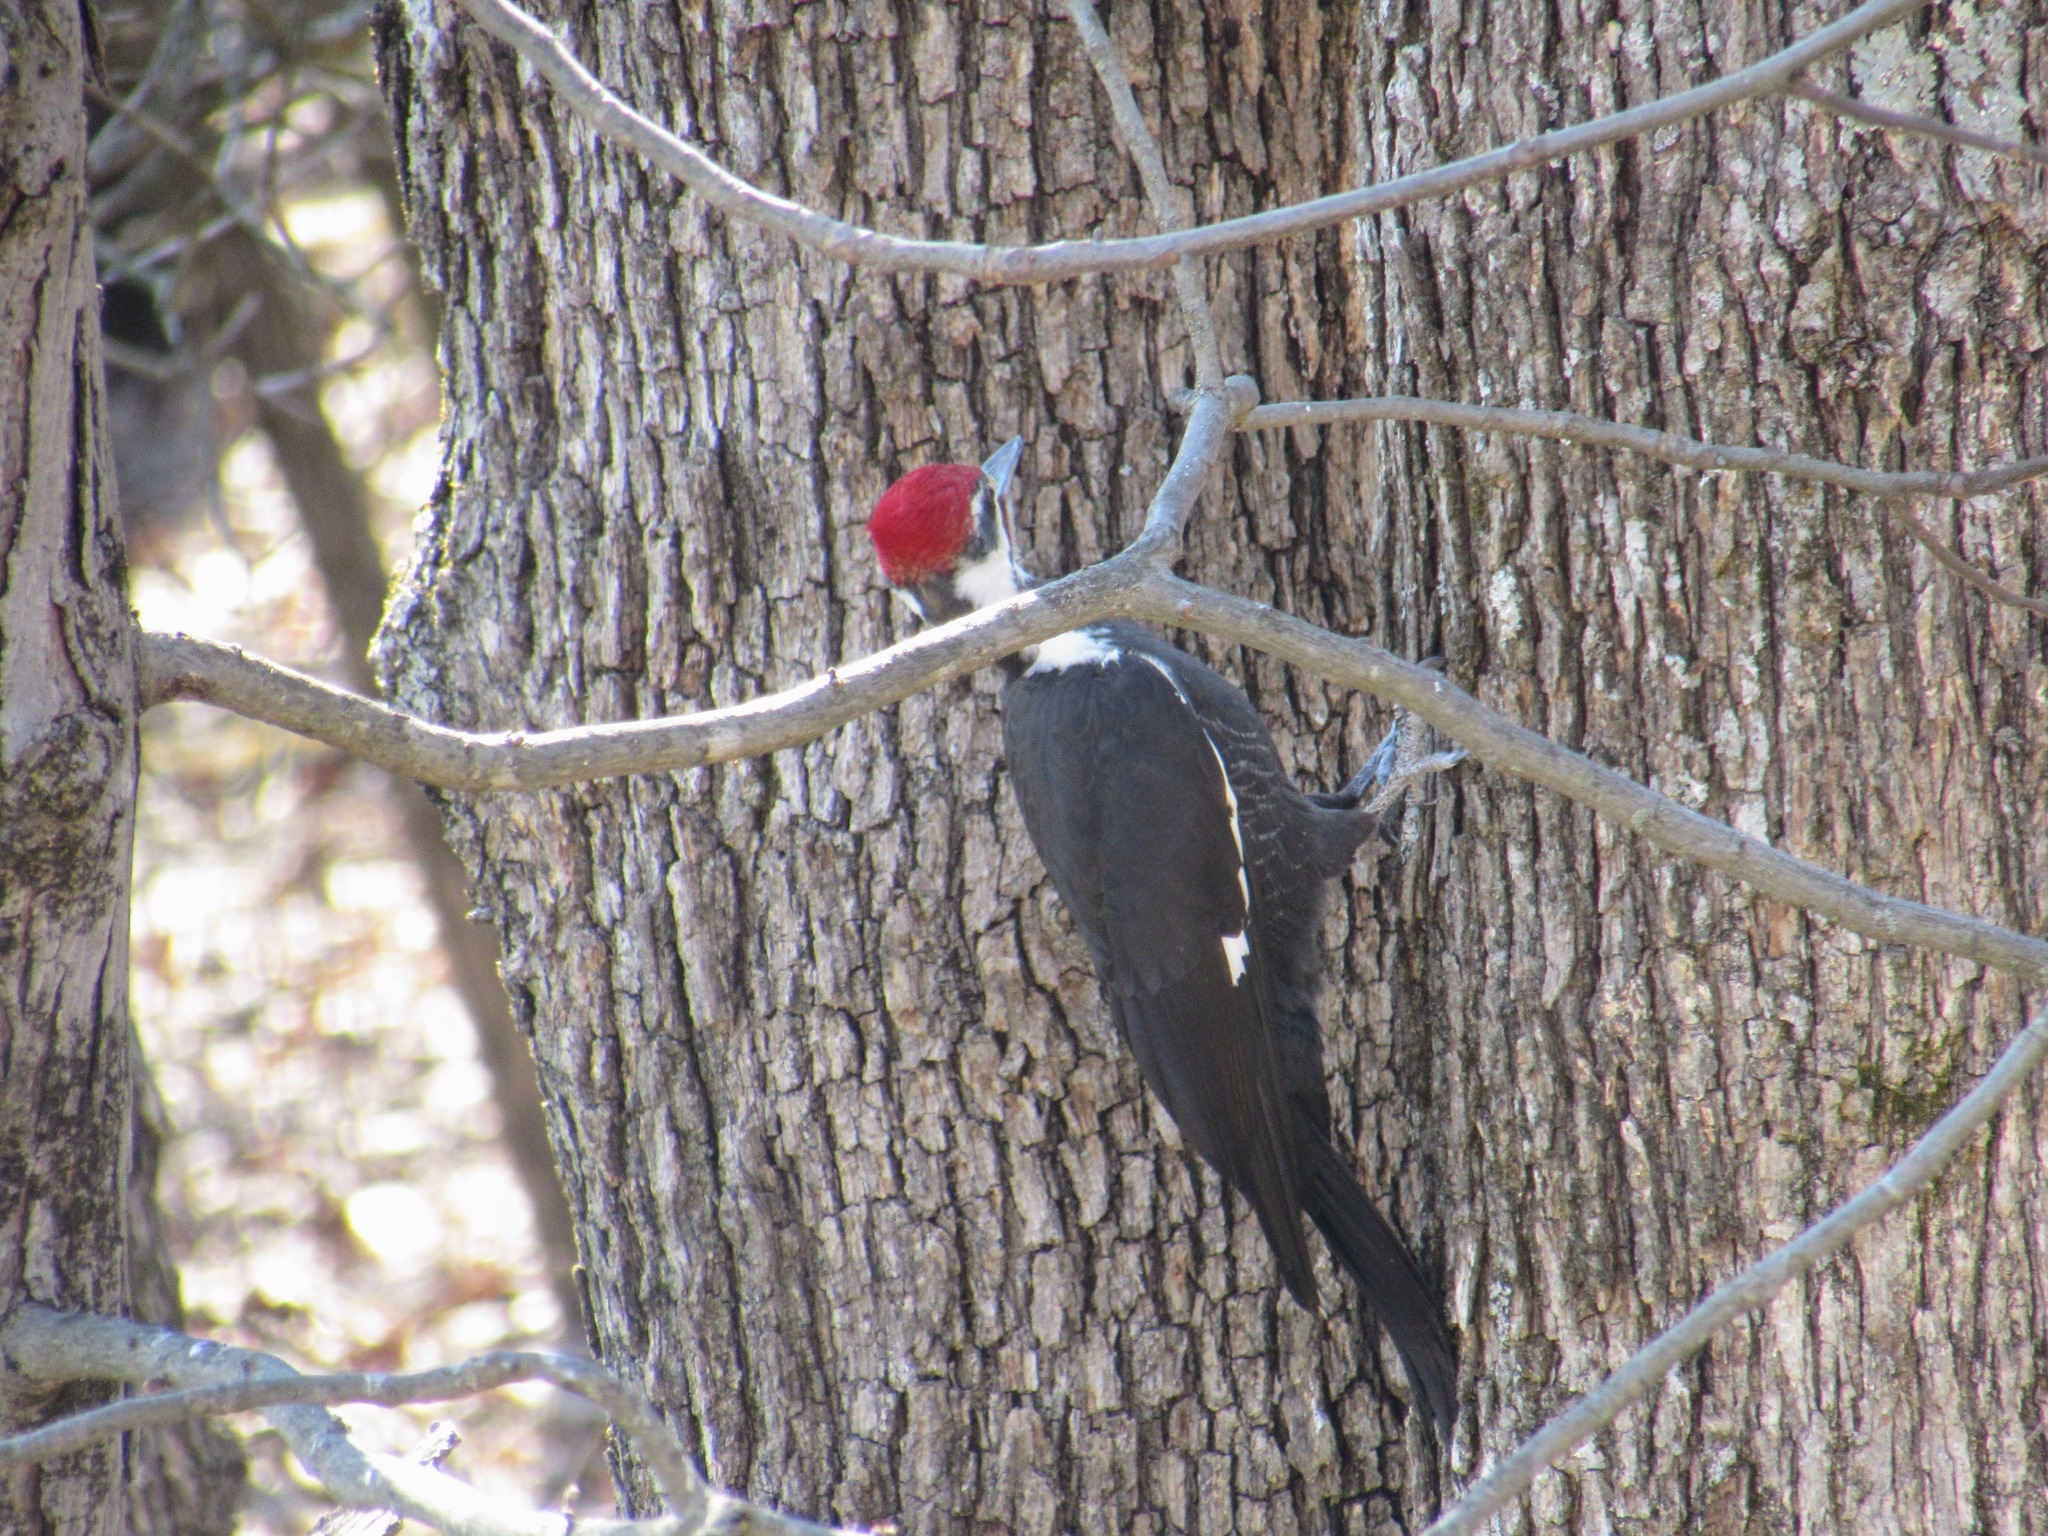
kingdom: Animalia
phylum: Chordata
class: Aves
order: Piciformes
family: Picidae
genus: Dryocopus
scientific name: Dryocopus pileatus
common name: Pileated woodpecker
